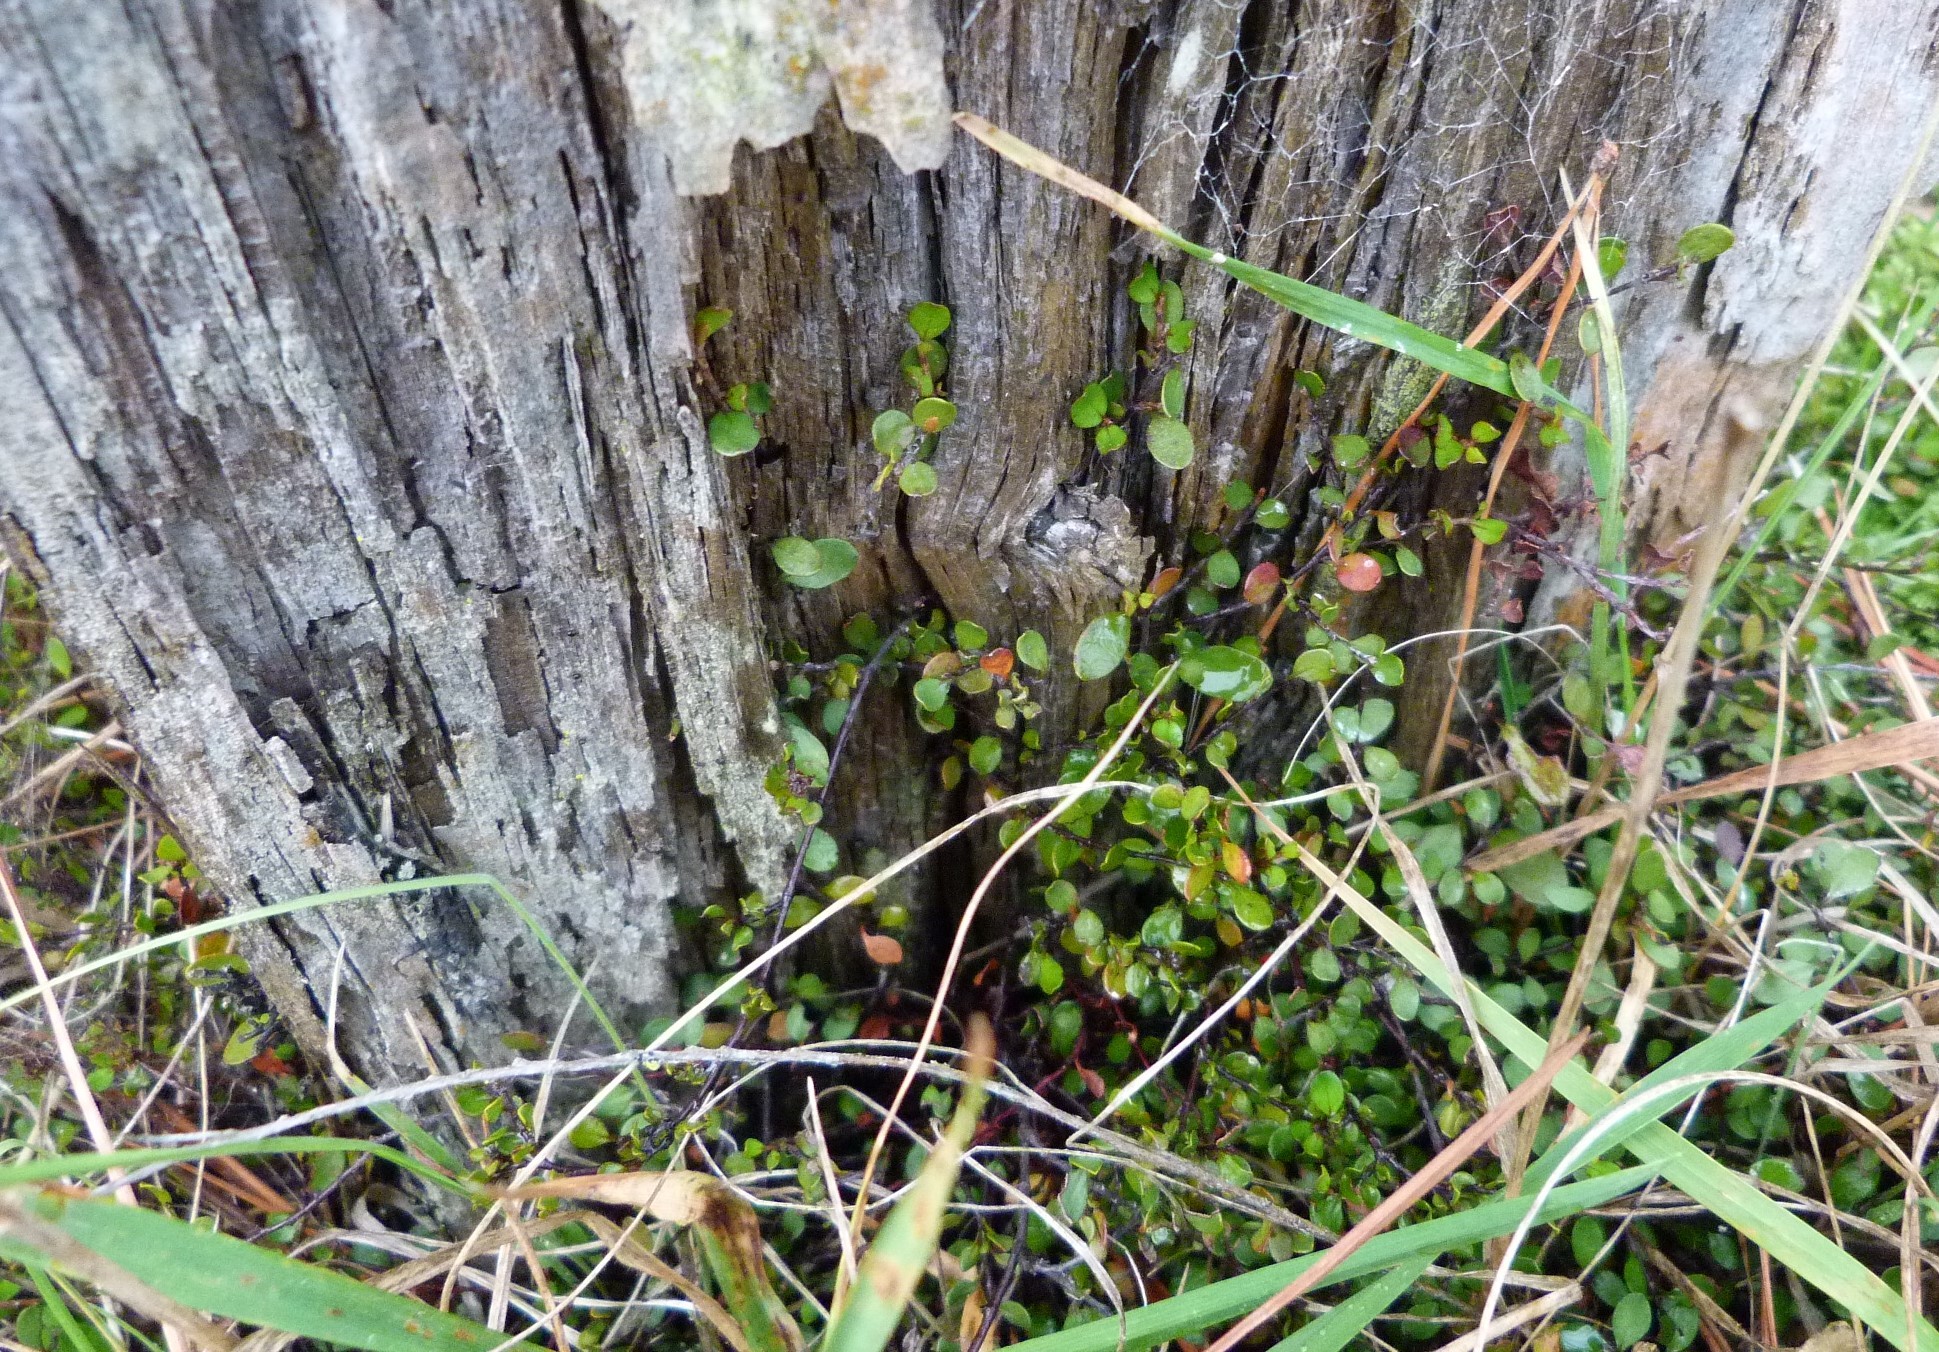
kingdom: Plantae
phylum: Tracheophyta
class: Magnoliopsida
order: Caryophyllales
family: Polygonaceae
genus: Muehlenbeckia
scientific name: Muehlenbeckia axillaris
